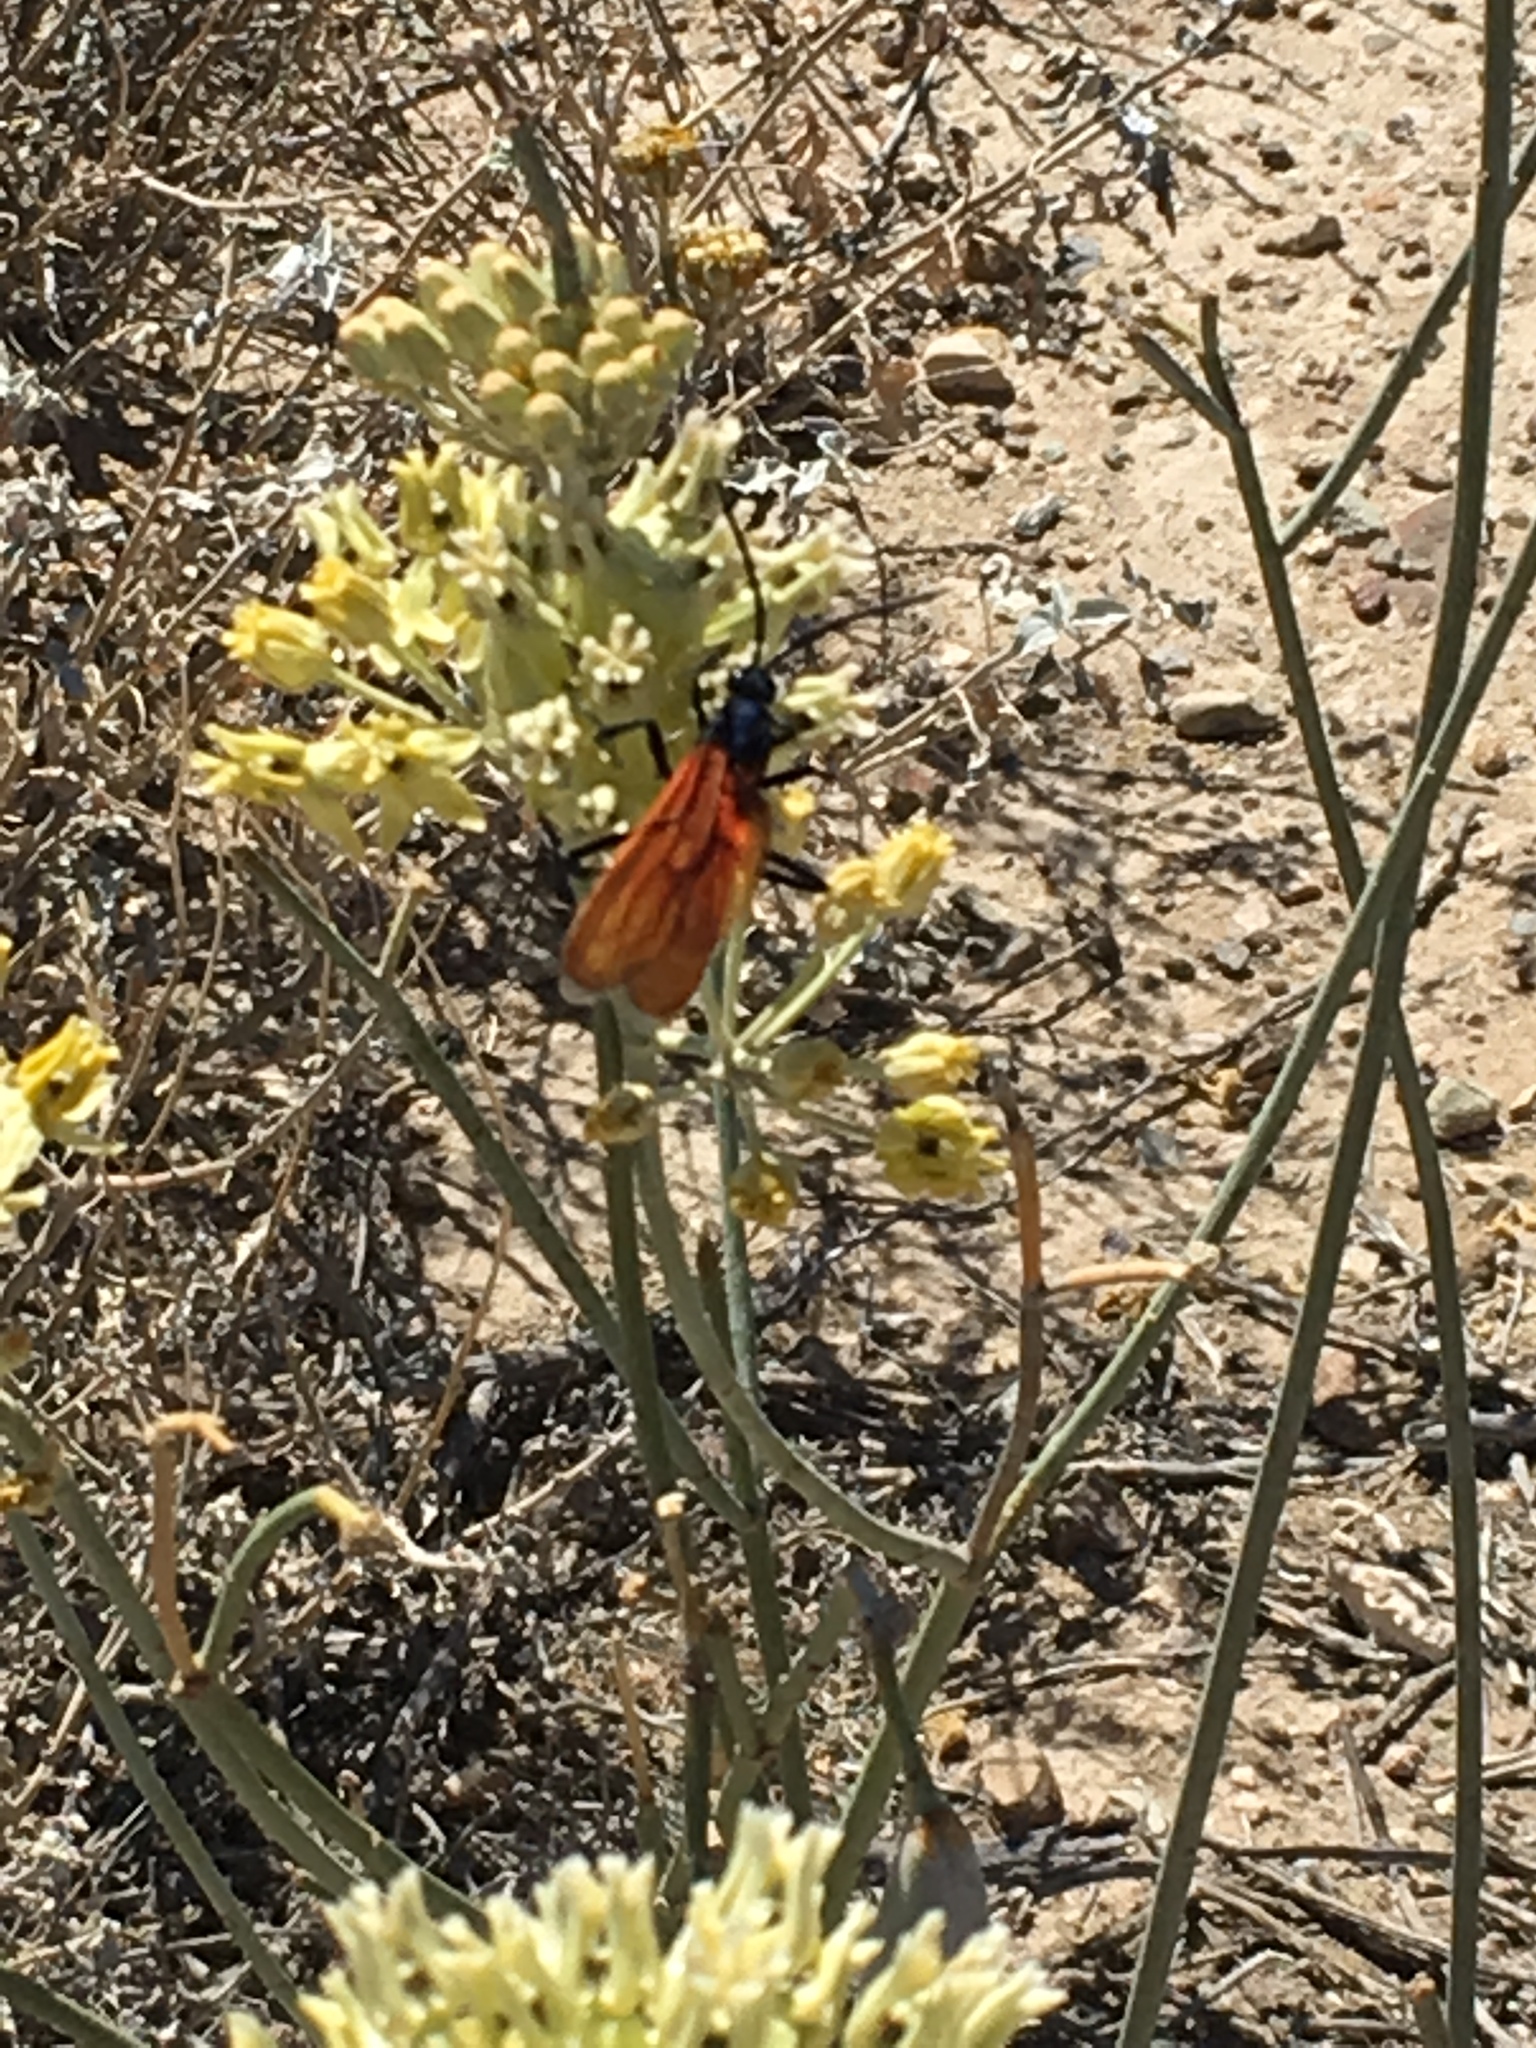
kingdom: Animalia
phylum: Arthropoda
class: Insecta
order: Hymenoptera
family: Pompilidae
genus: Pepsis
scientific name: Pepsis thisbe
